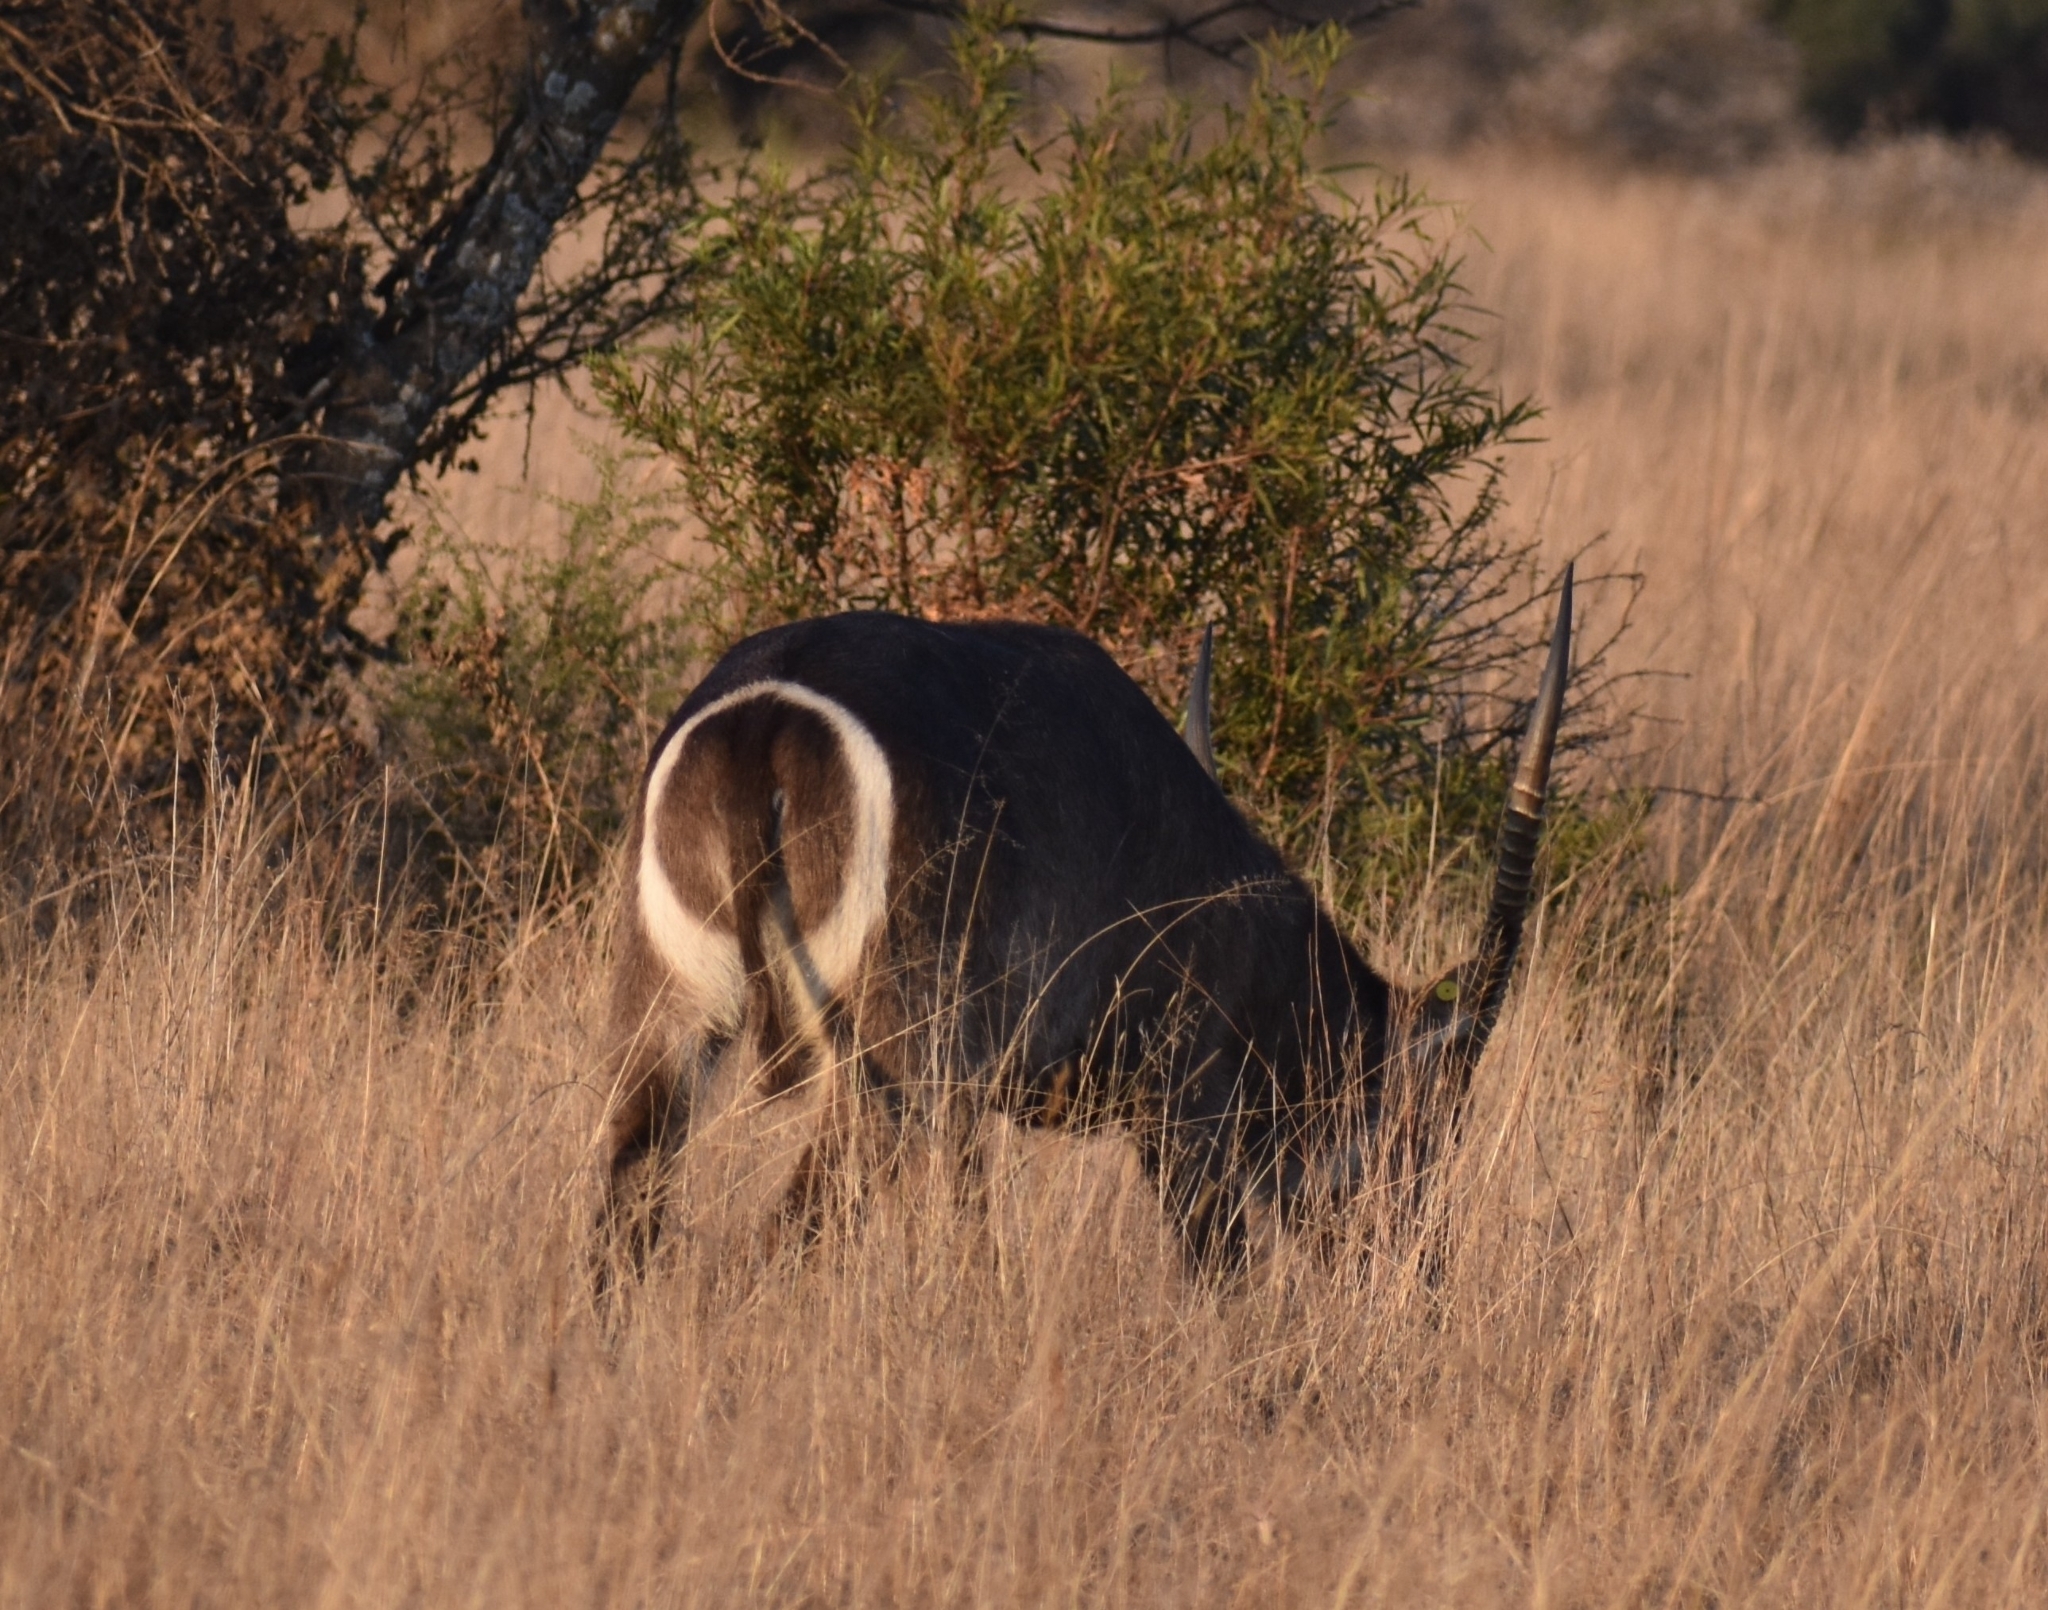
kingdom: Animalia
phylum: Chordata
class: Mammalia
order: Artiodactyla
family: Bovidae
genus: Kobus
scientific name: Kobus ellipsiprymnus
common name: Waterbuck
